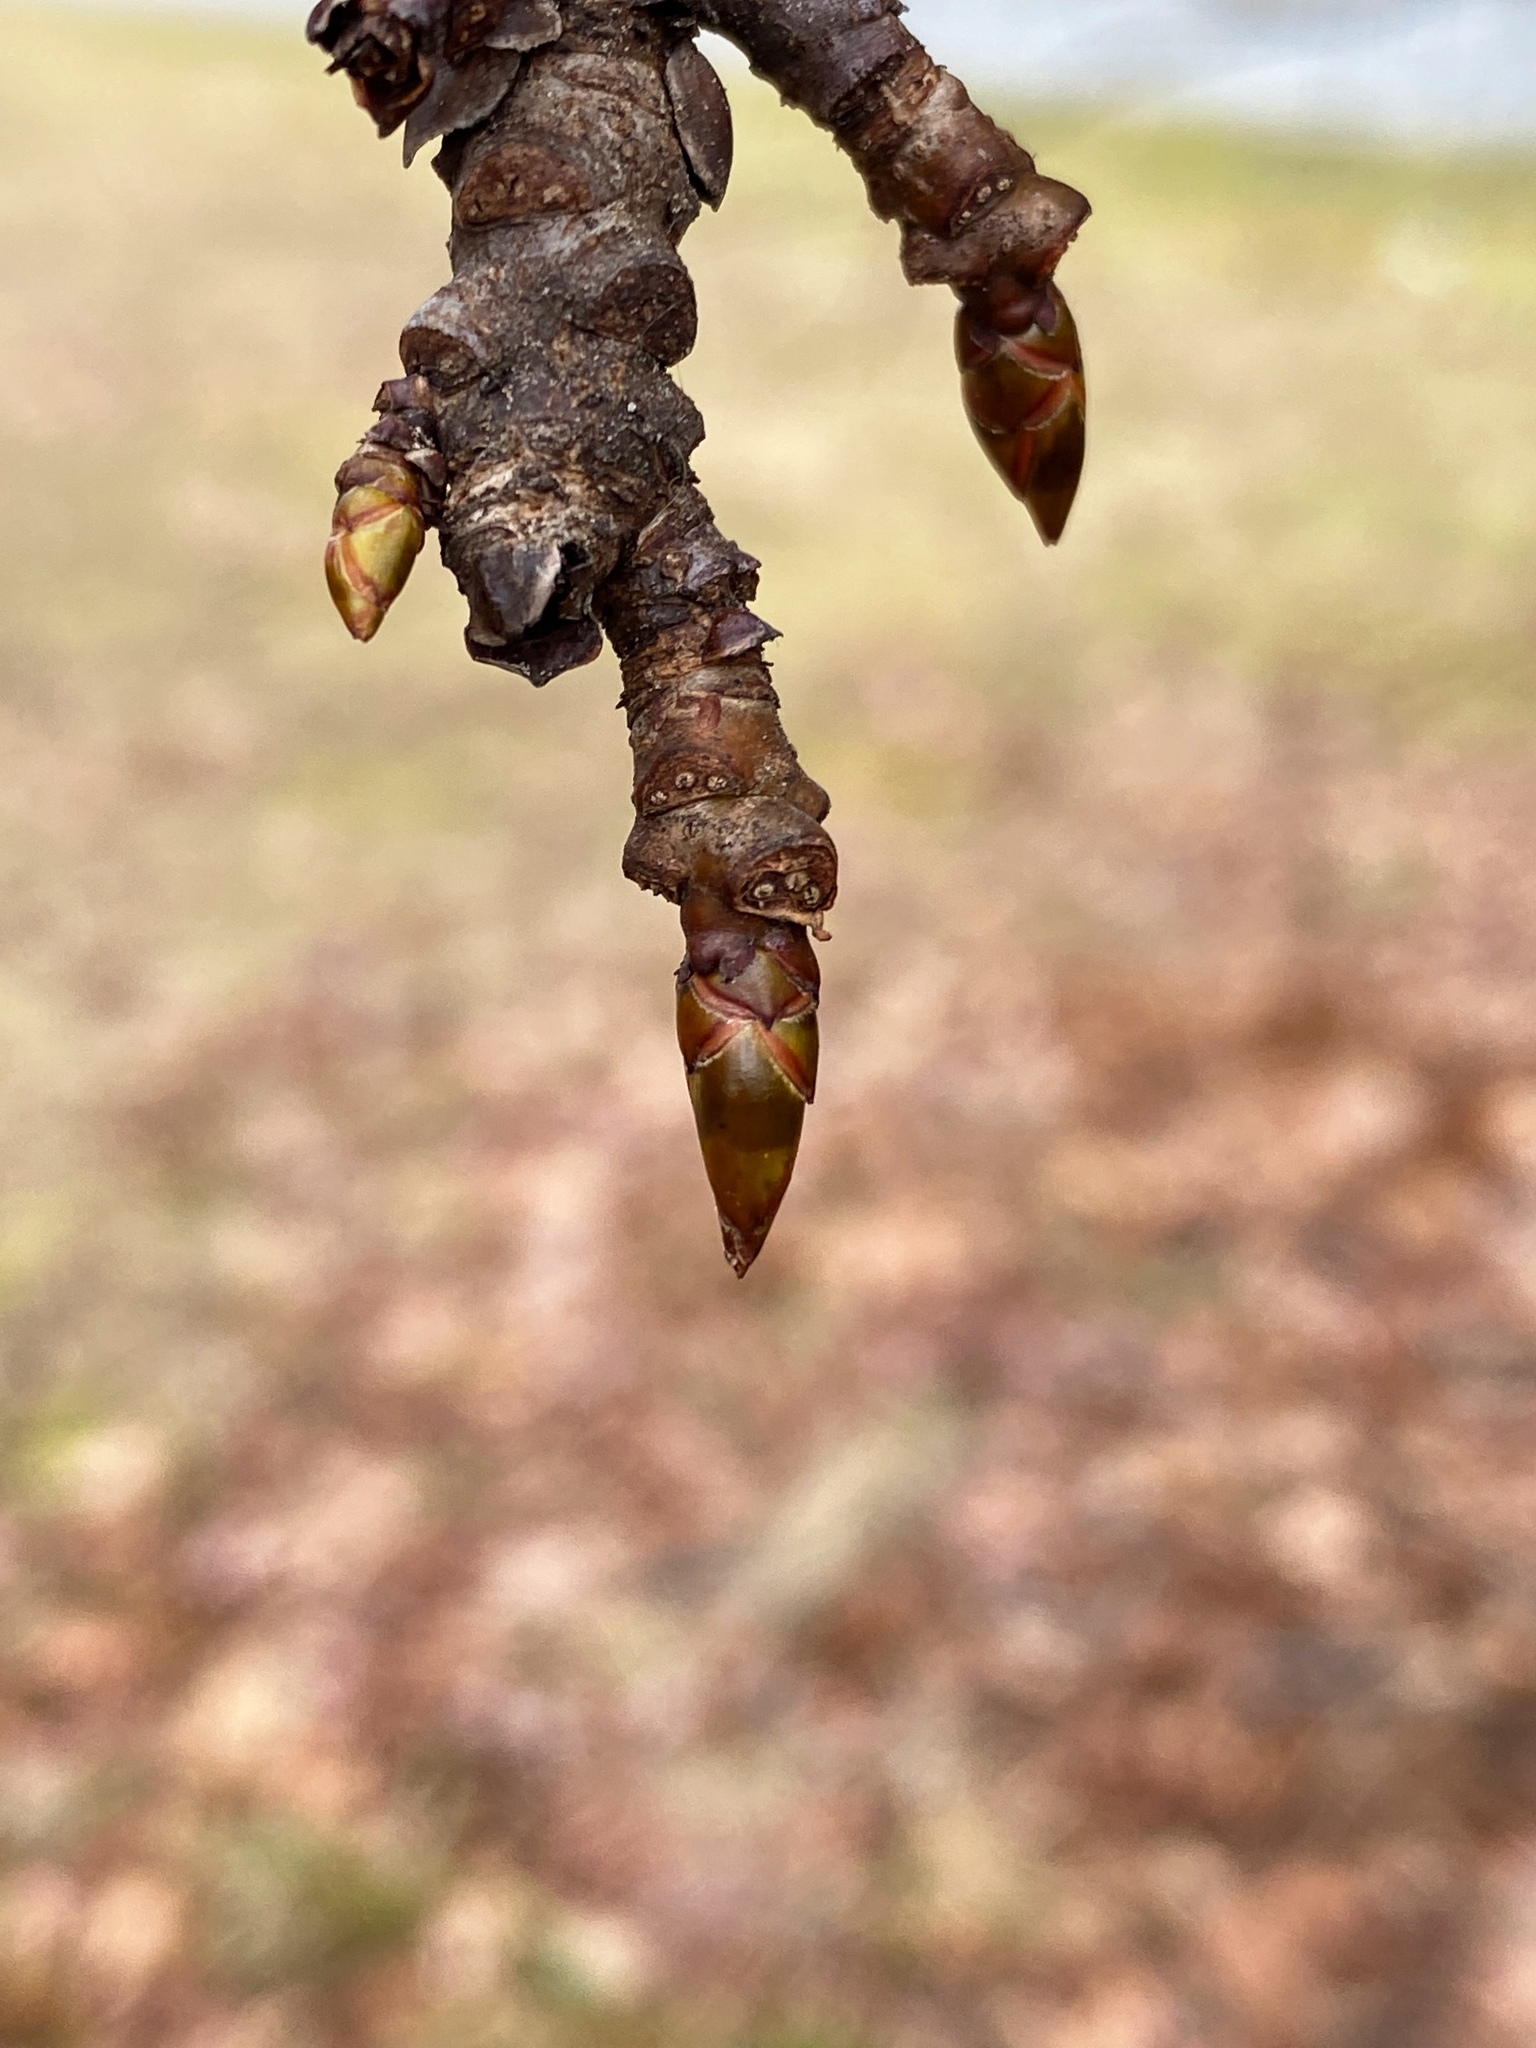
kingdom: Plantae
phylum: Tracheophyta
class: Magnoliopsida
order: Saxifragales
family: Altingiaceae
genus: Liquidambar
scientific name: Liquidambar styraciflua
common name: Sweet gum
